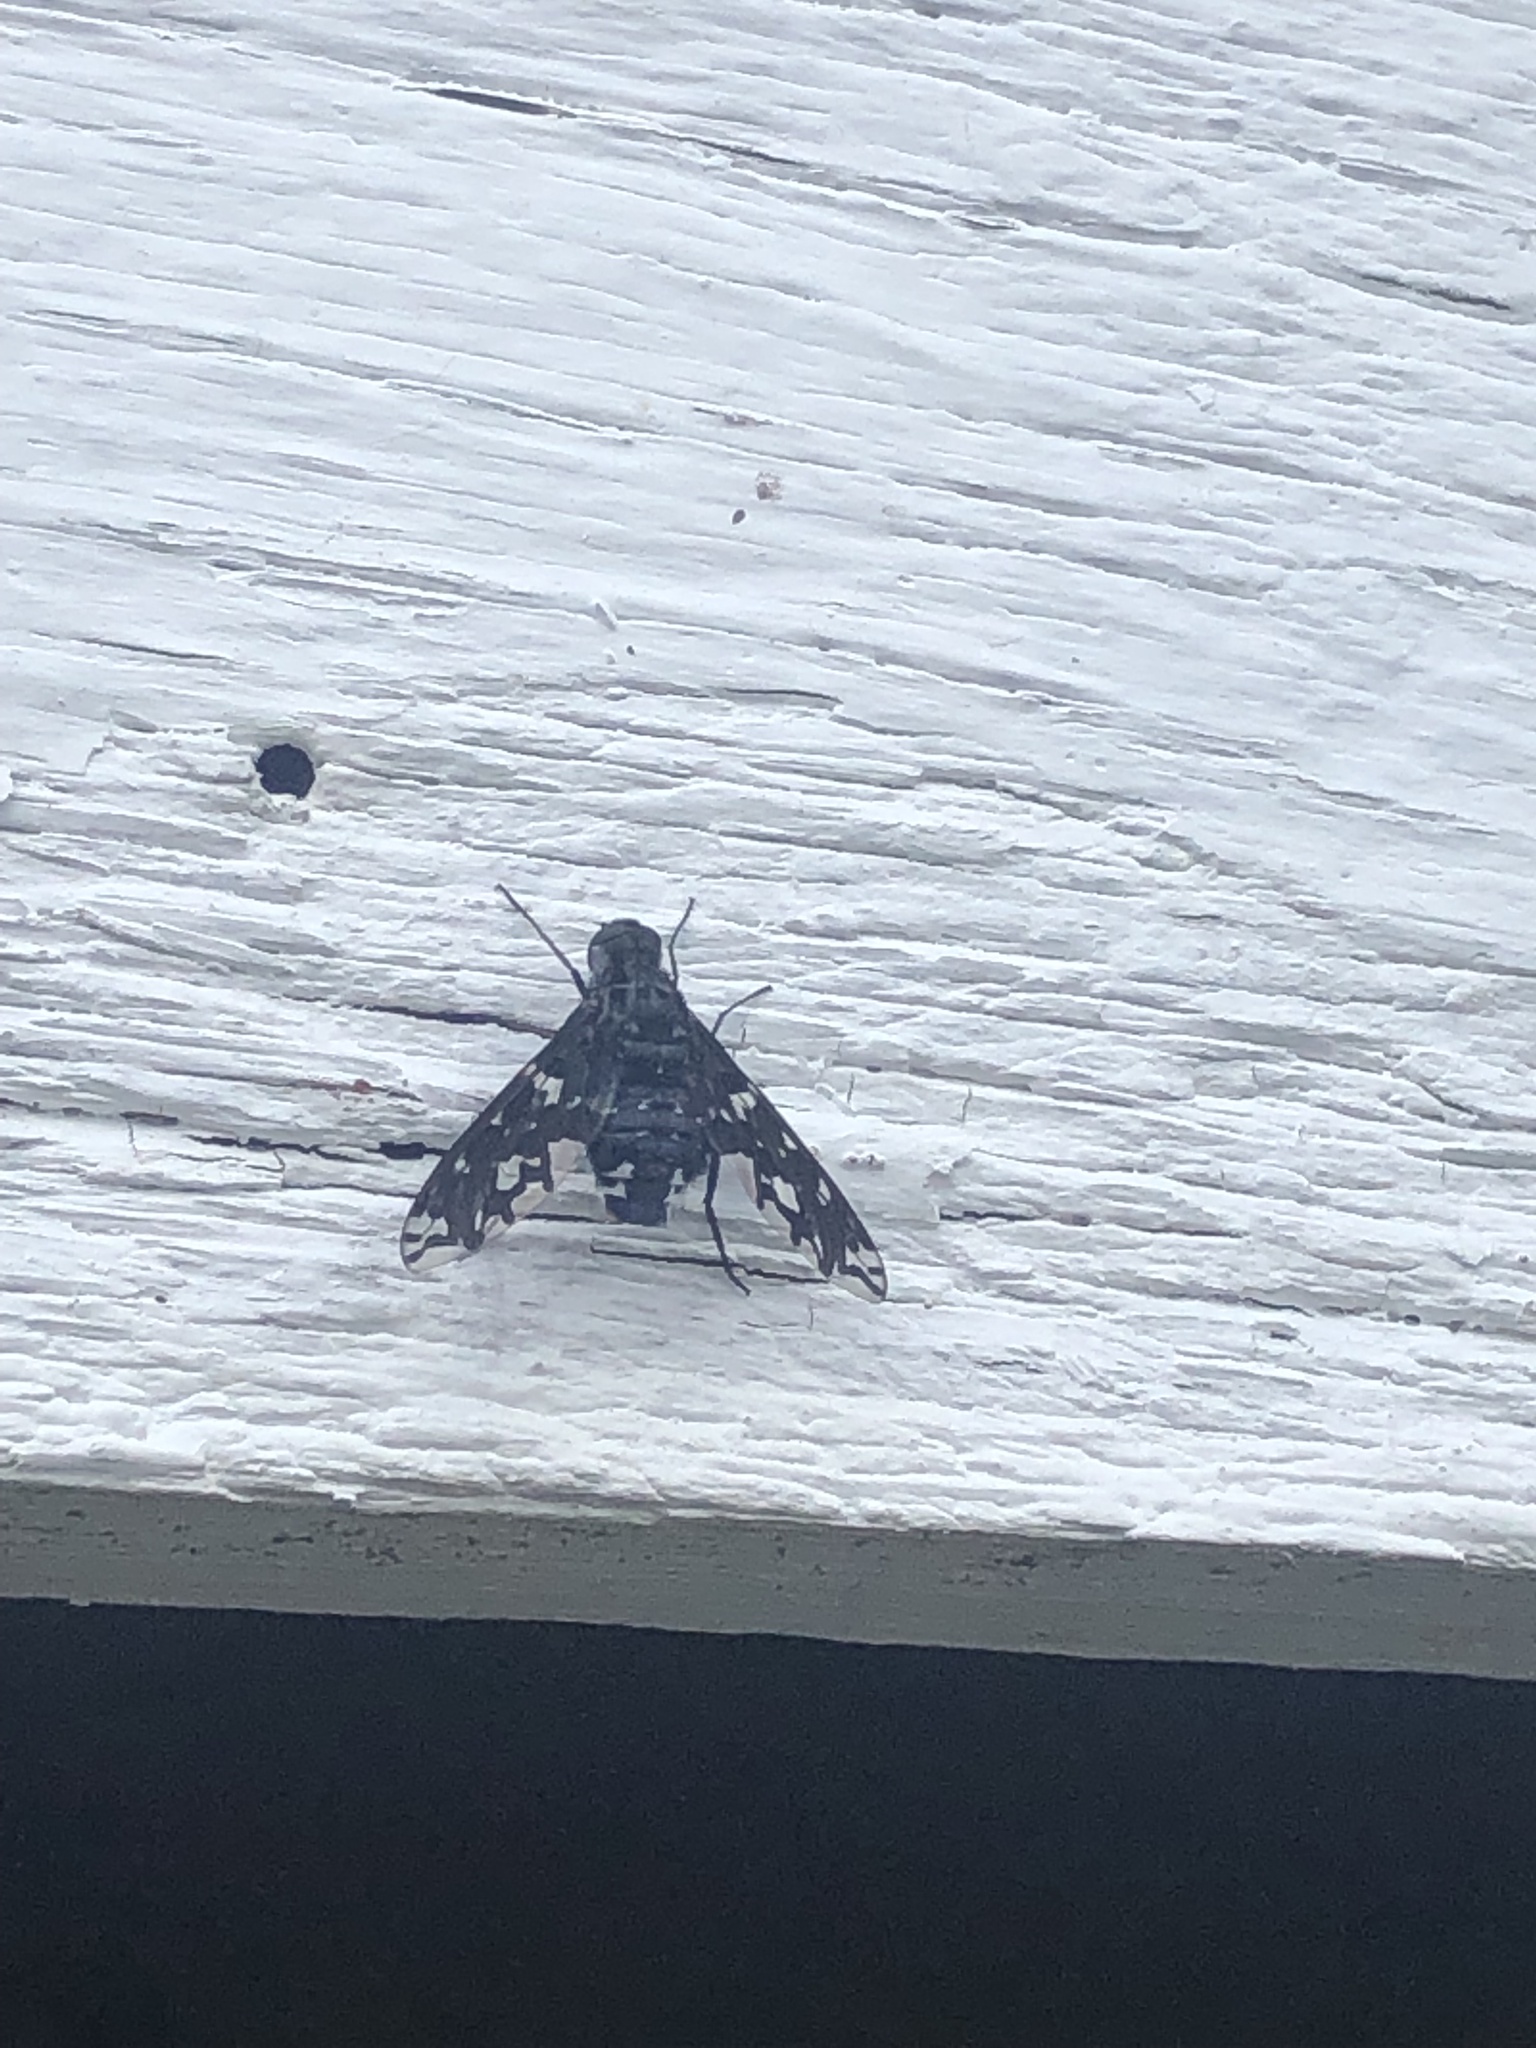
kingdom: Animalia
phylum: Arthropoda
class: Insecta
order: Diptera
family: Bombyliidae
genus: Xenox
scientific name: Xenox tigrinus
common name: Tiger bee fly
